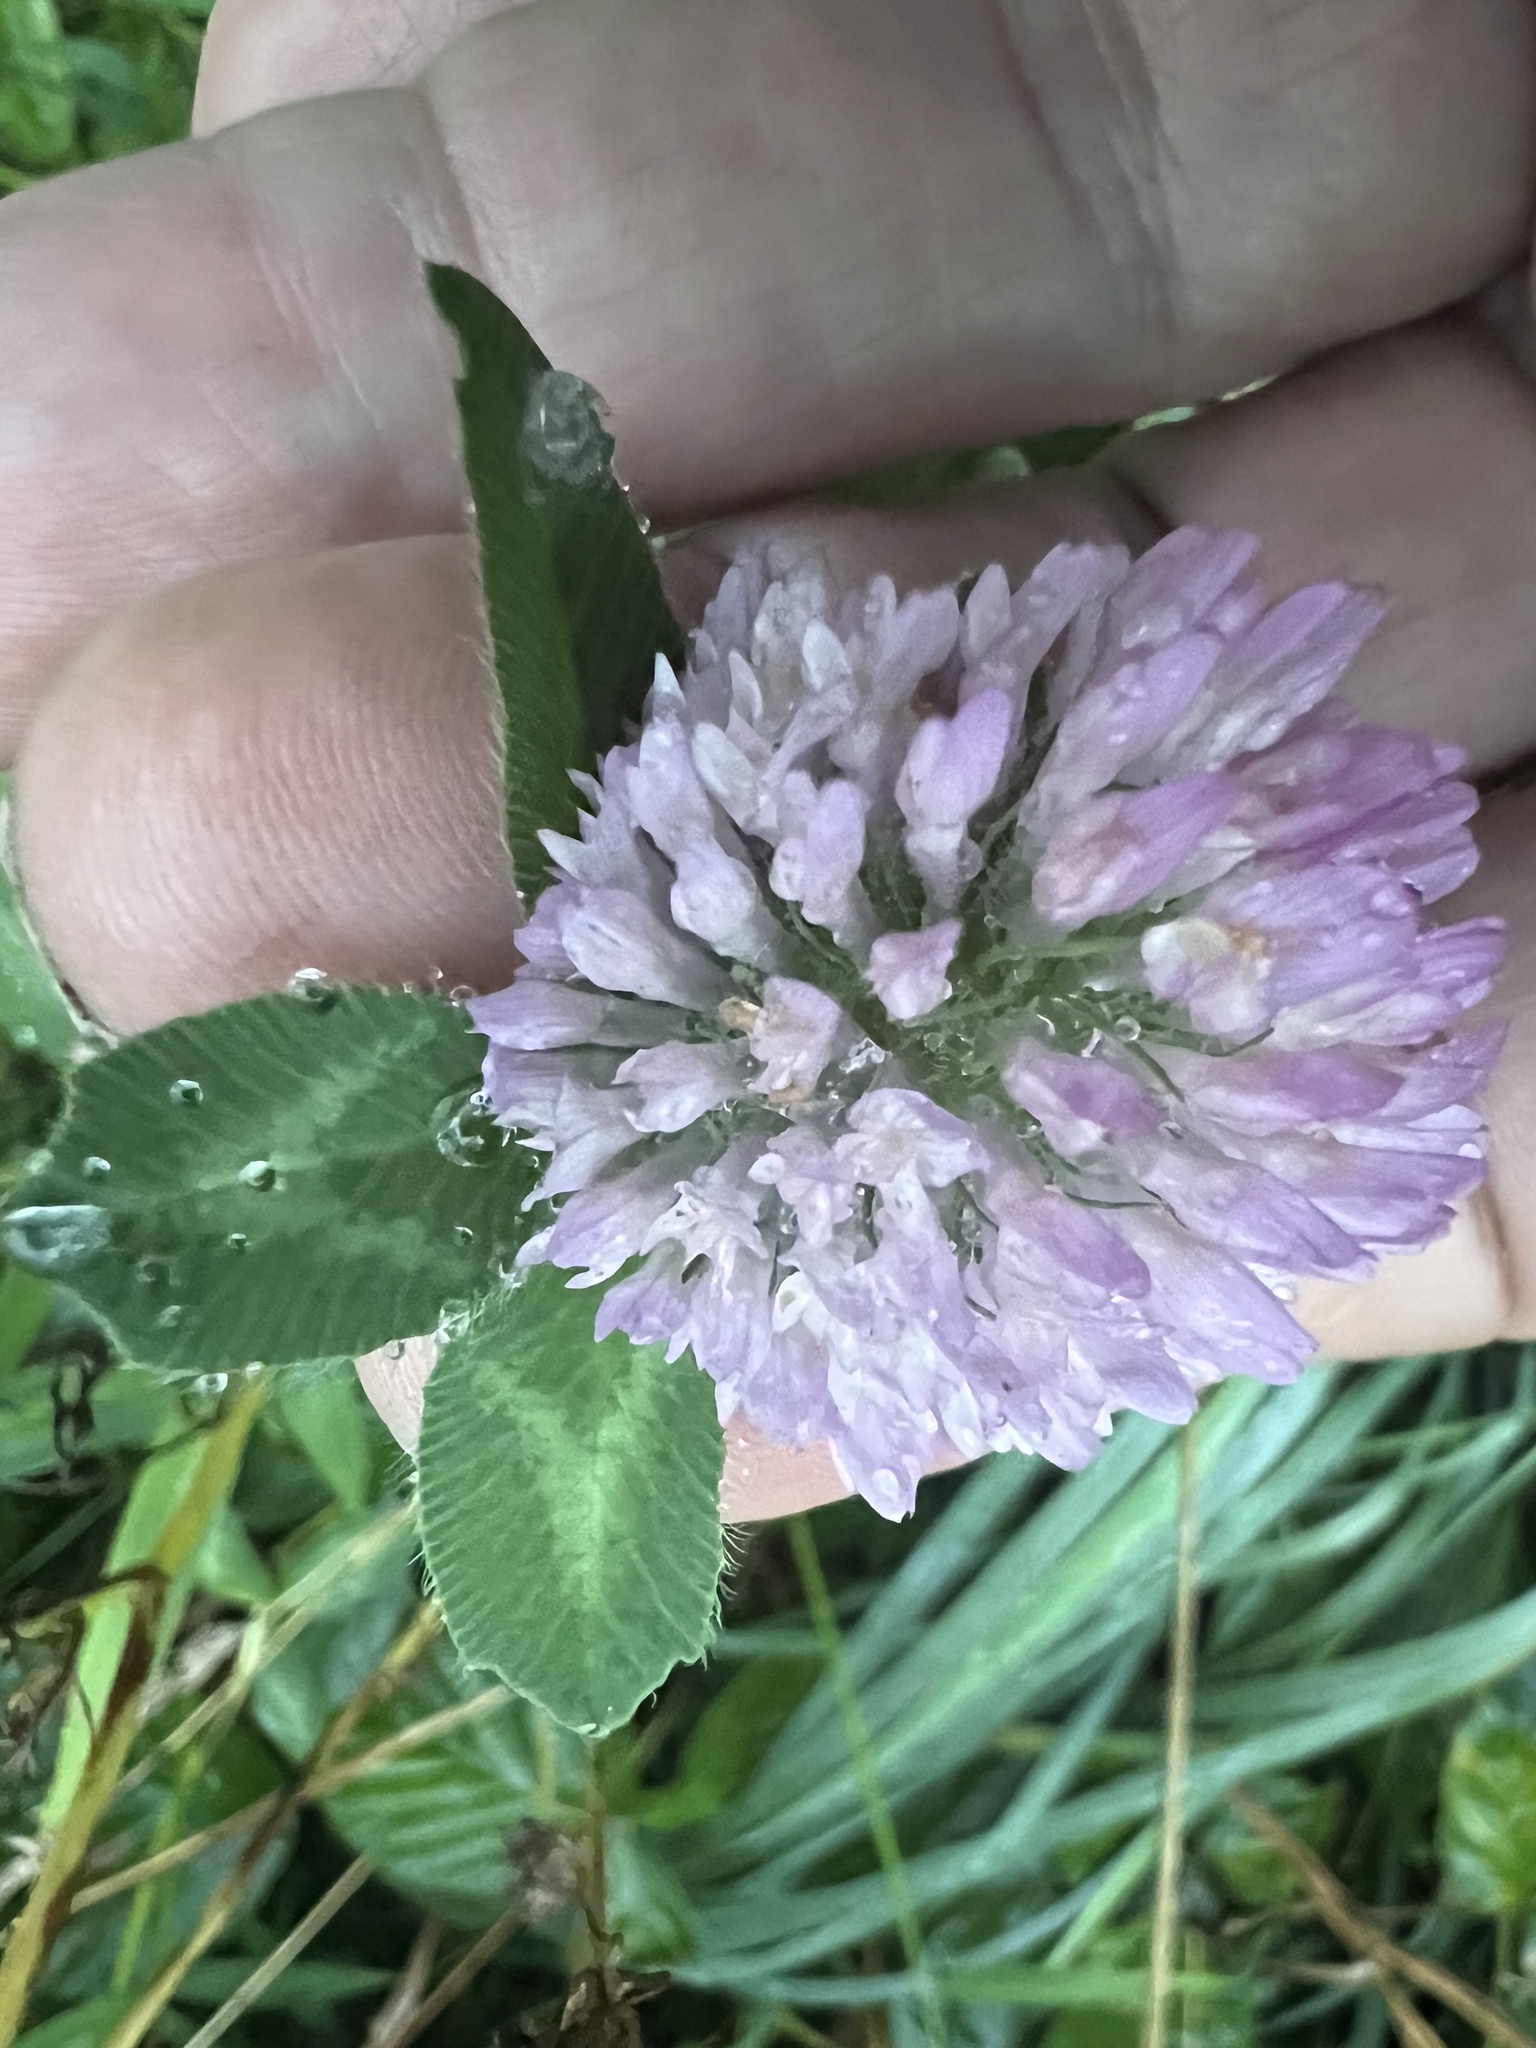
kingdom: Plantae
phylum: Tracheophyta
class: Magnoliopsida
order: Fabales
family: Fabaceae
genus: Trifolium
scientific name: Trifolium pratense
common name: Red clover
